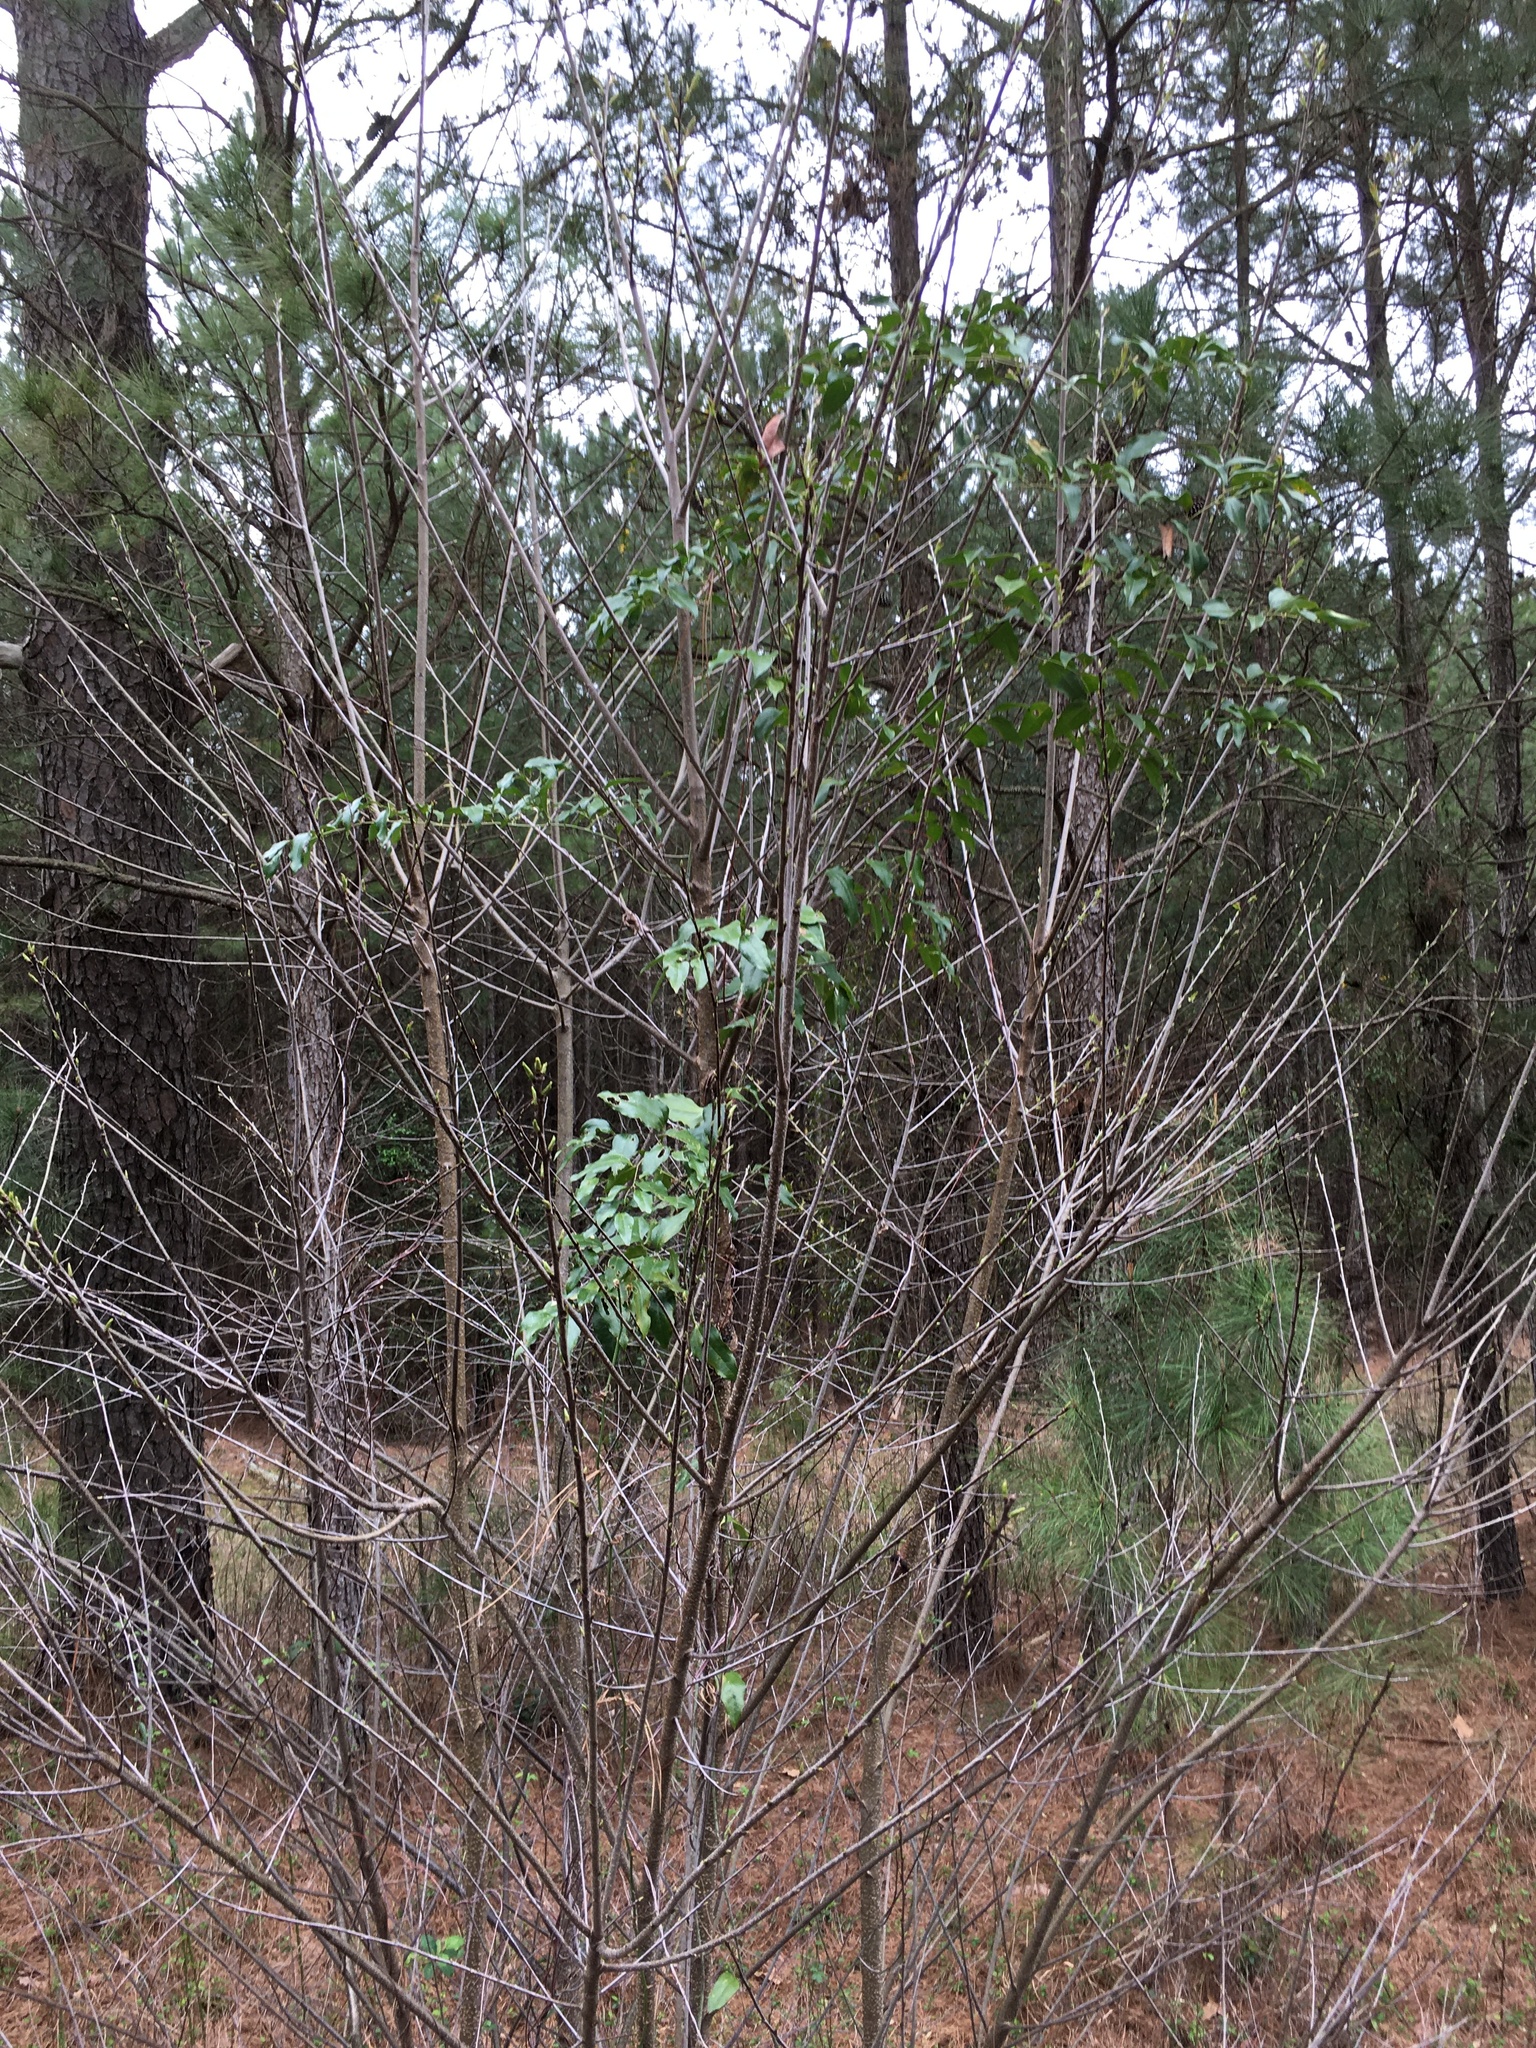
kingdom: Plantae
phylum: Tracheophyta
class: Liliopsida
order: Liliales
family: Smilacaceae
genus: Smilax
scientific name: Smilax maritima
